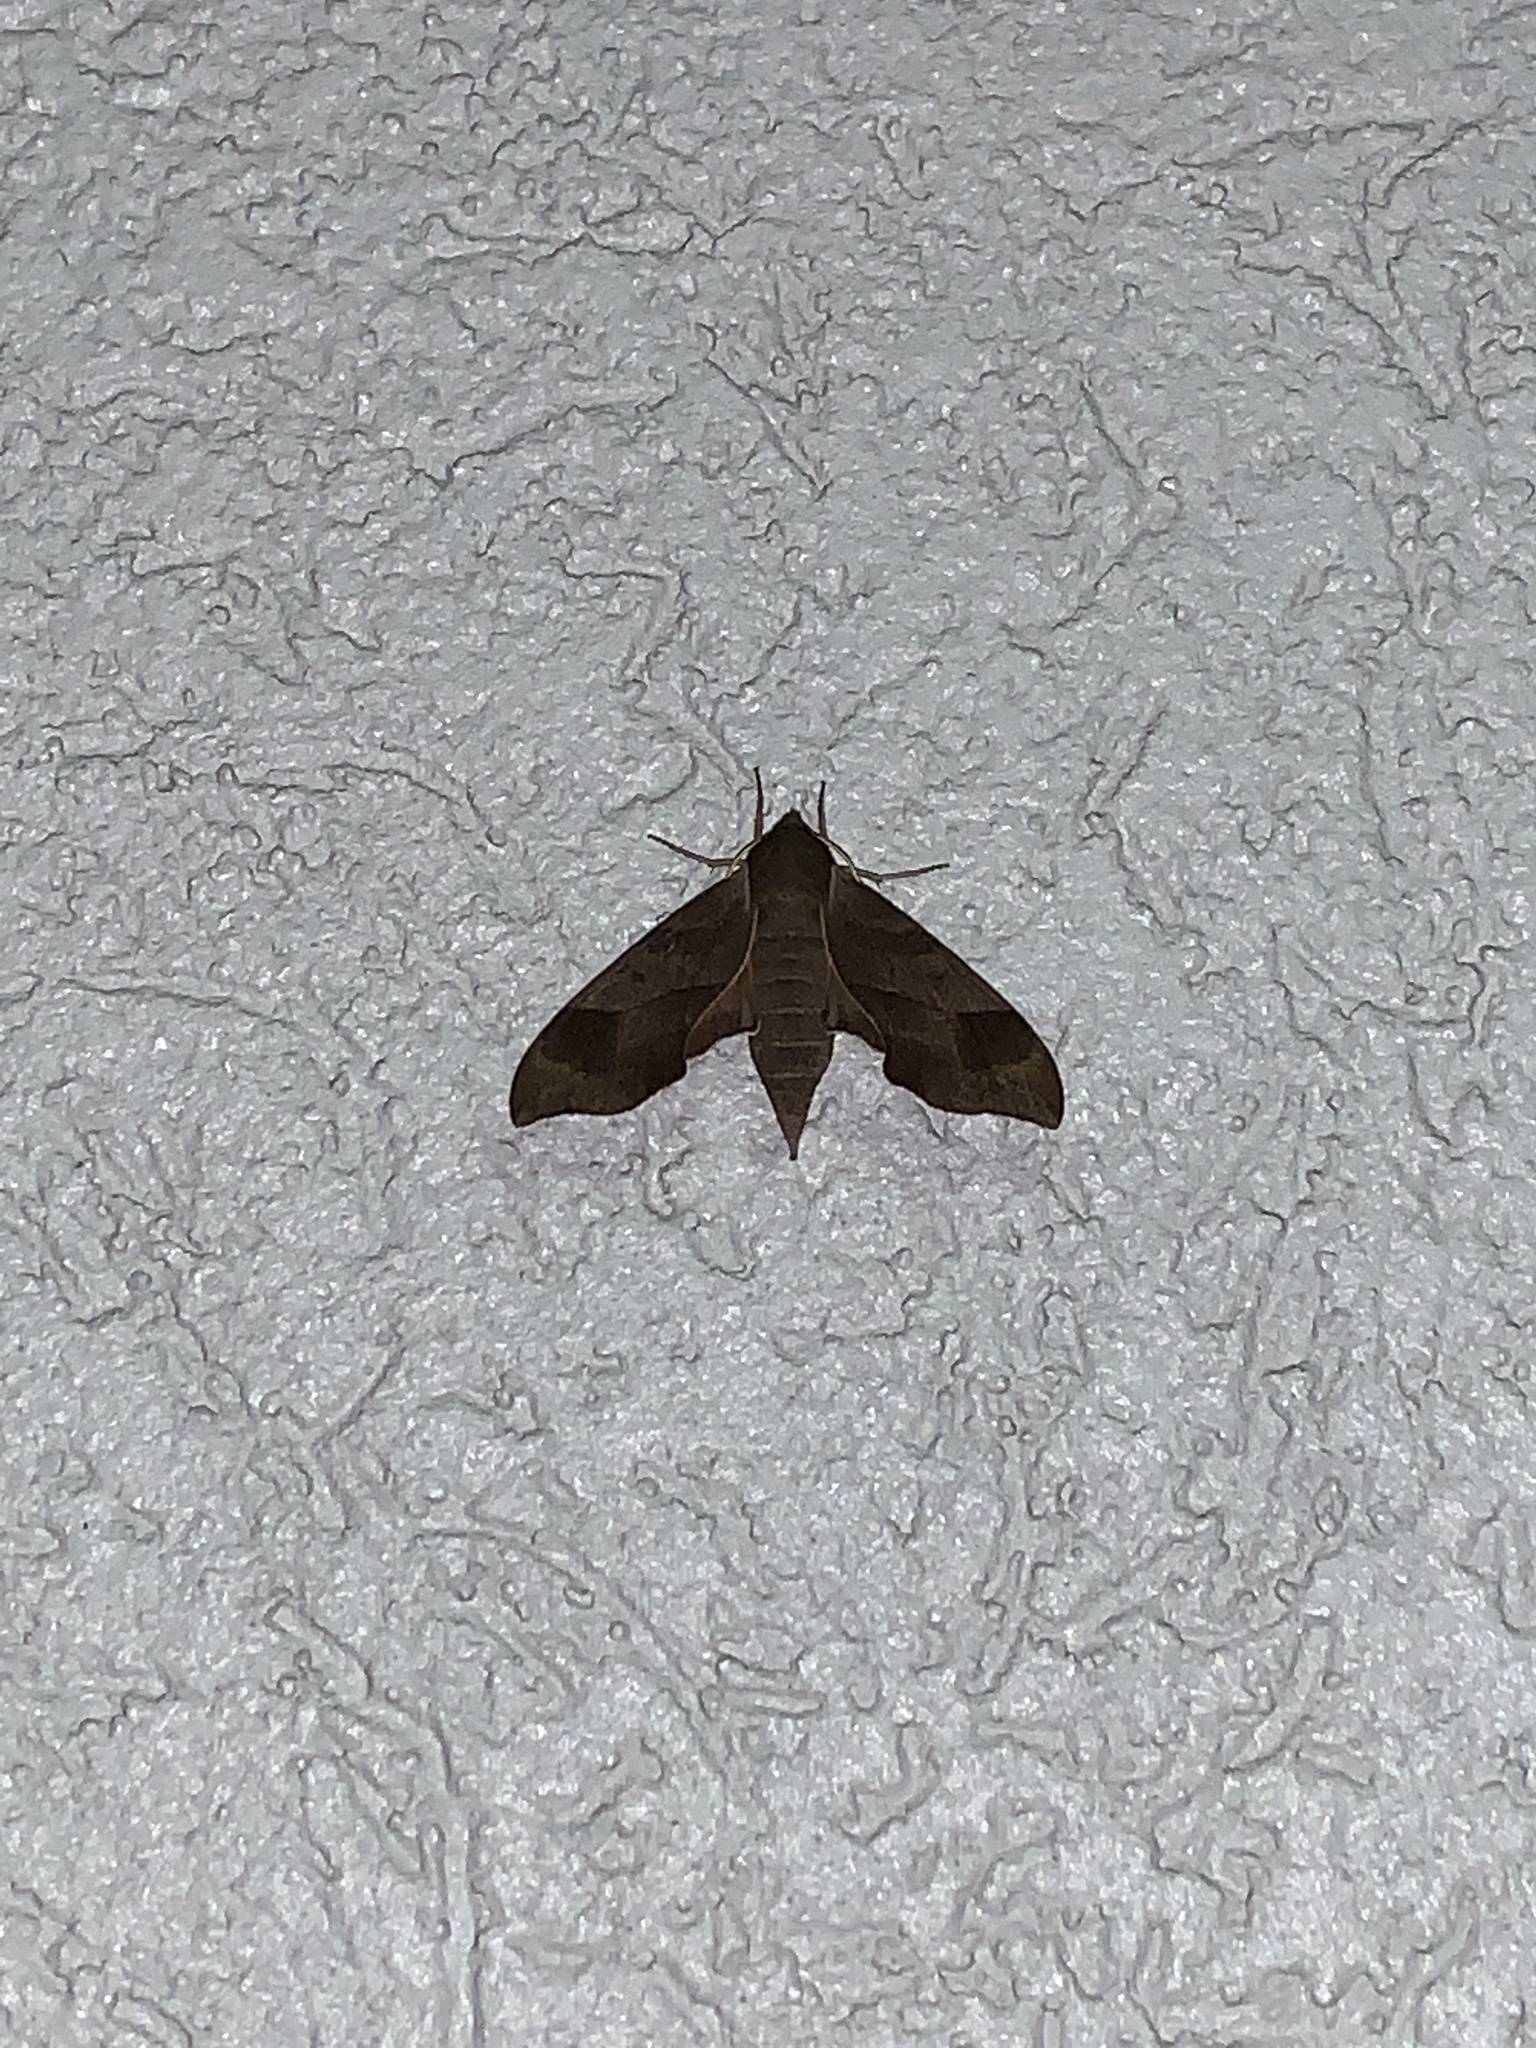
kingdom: Animalia
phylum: Arthropoda
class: Insecta
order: Lepidoptera
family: Sphingidae
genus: Darapsa
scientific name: Darapsa myron
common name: Hog sphinx
